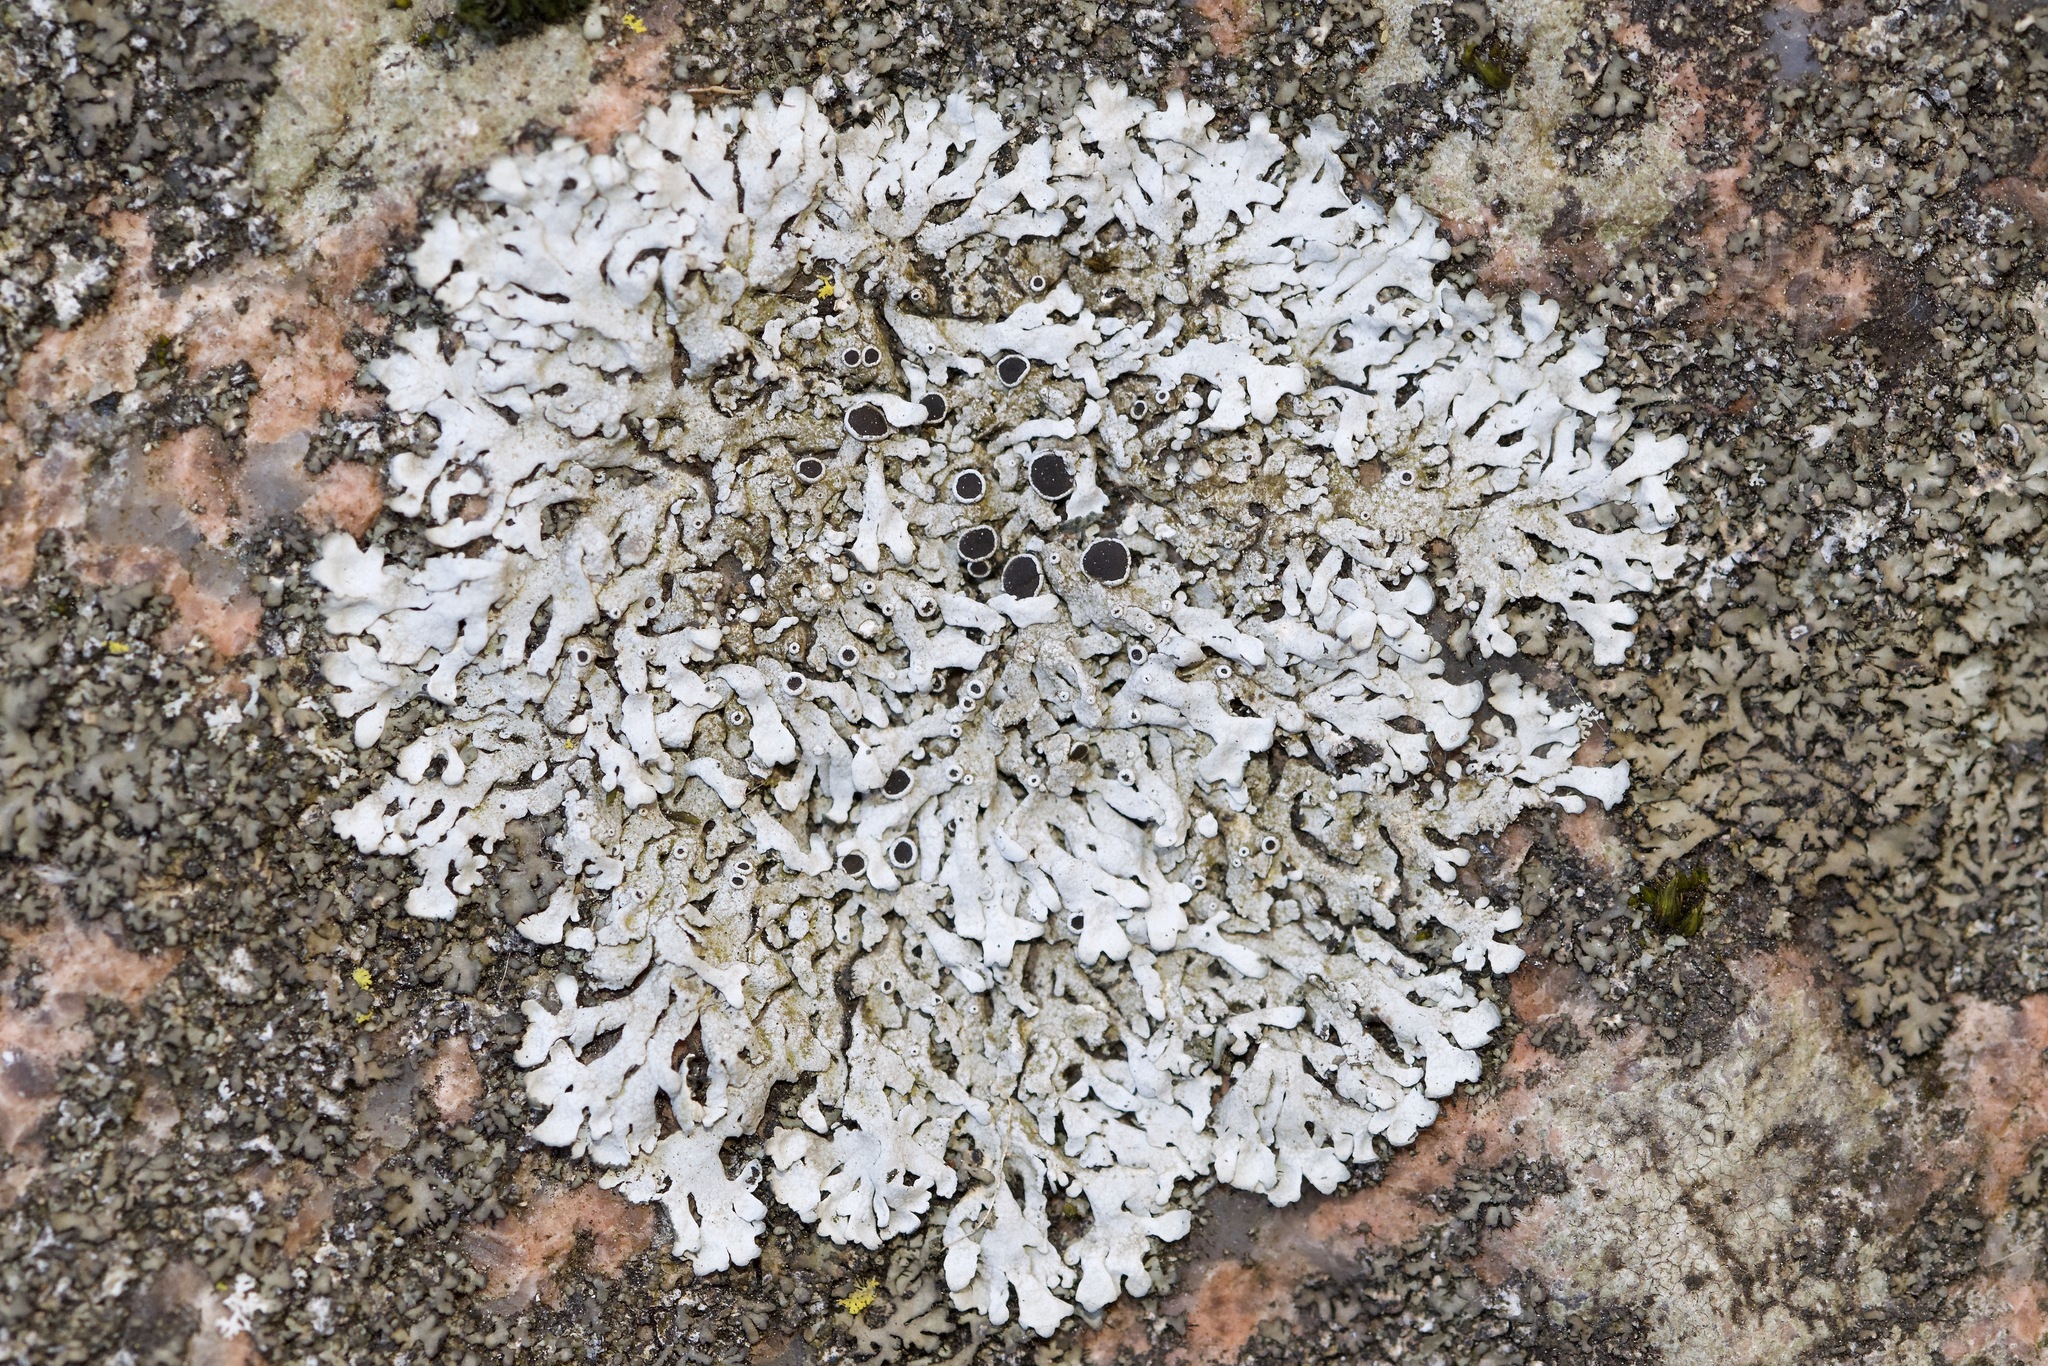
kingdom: Fungi
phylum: Ascomycota
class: Lecanoromycetes
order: Caliciales
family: Physciaceae
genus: Physcia
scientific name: Physcia phaea
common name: Black-eyed rosette lichen
